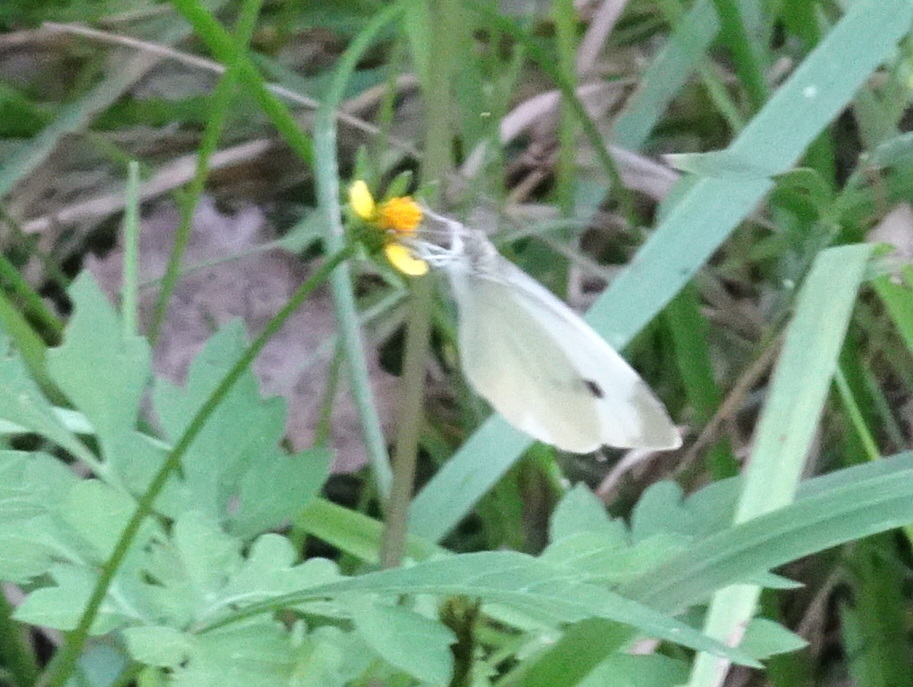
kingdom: Animalia
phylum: Arthropoda
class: Insecta
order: Lepidoptera
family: Pieridae
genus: Pieris
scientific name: Pieris rapae
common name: Small white
